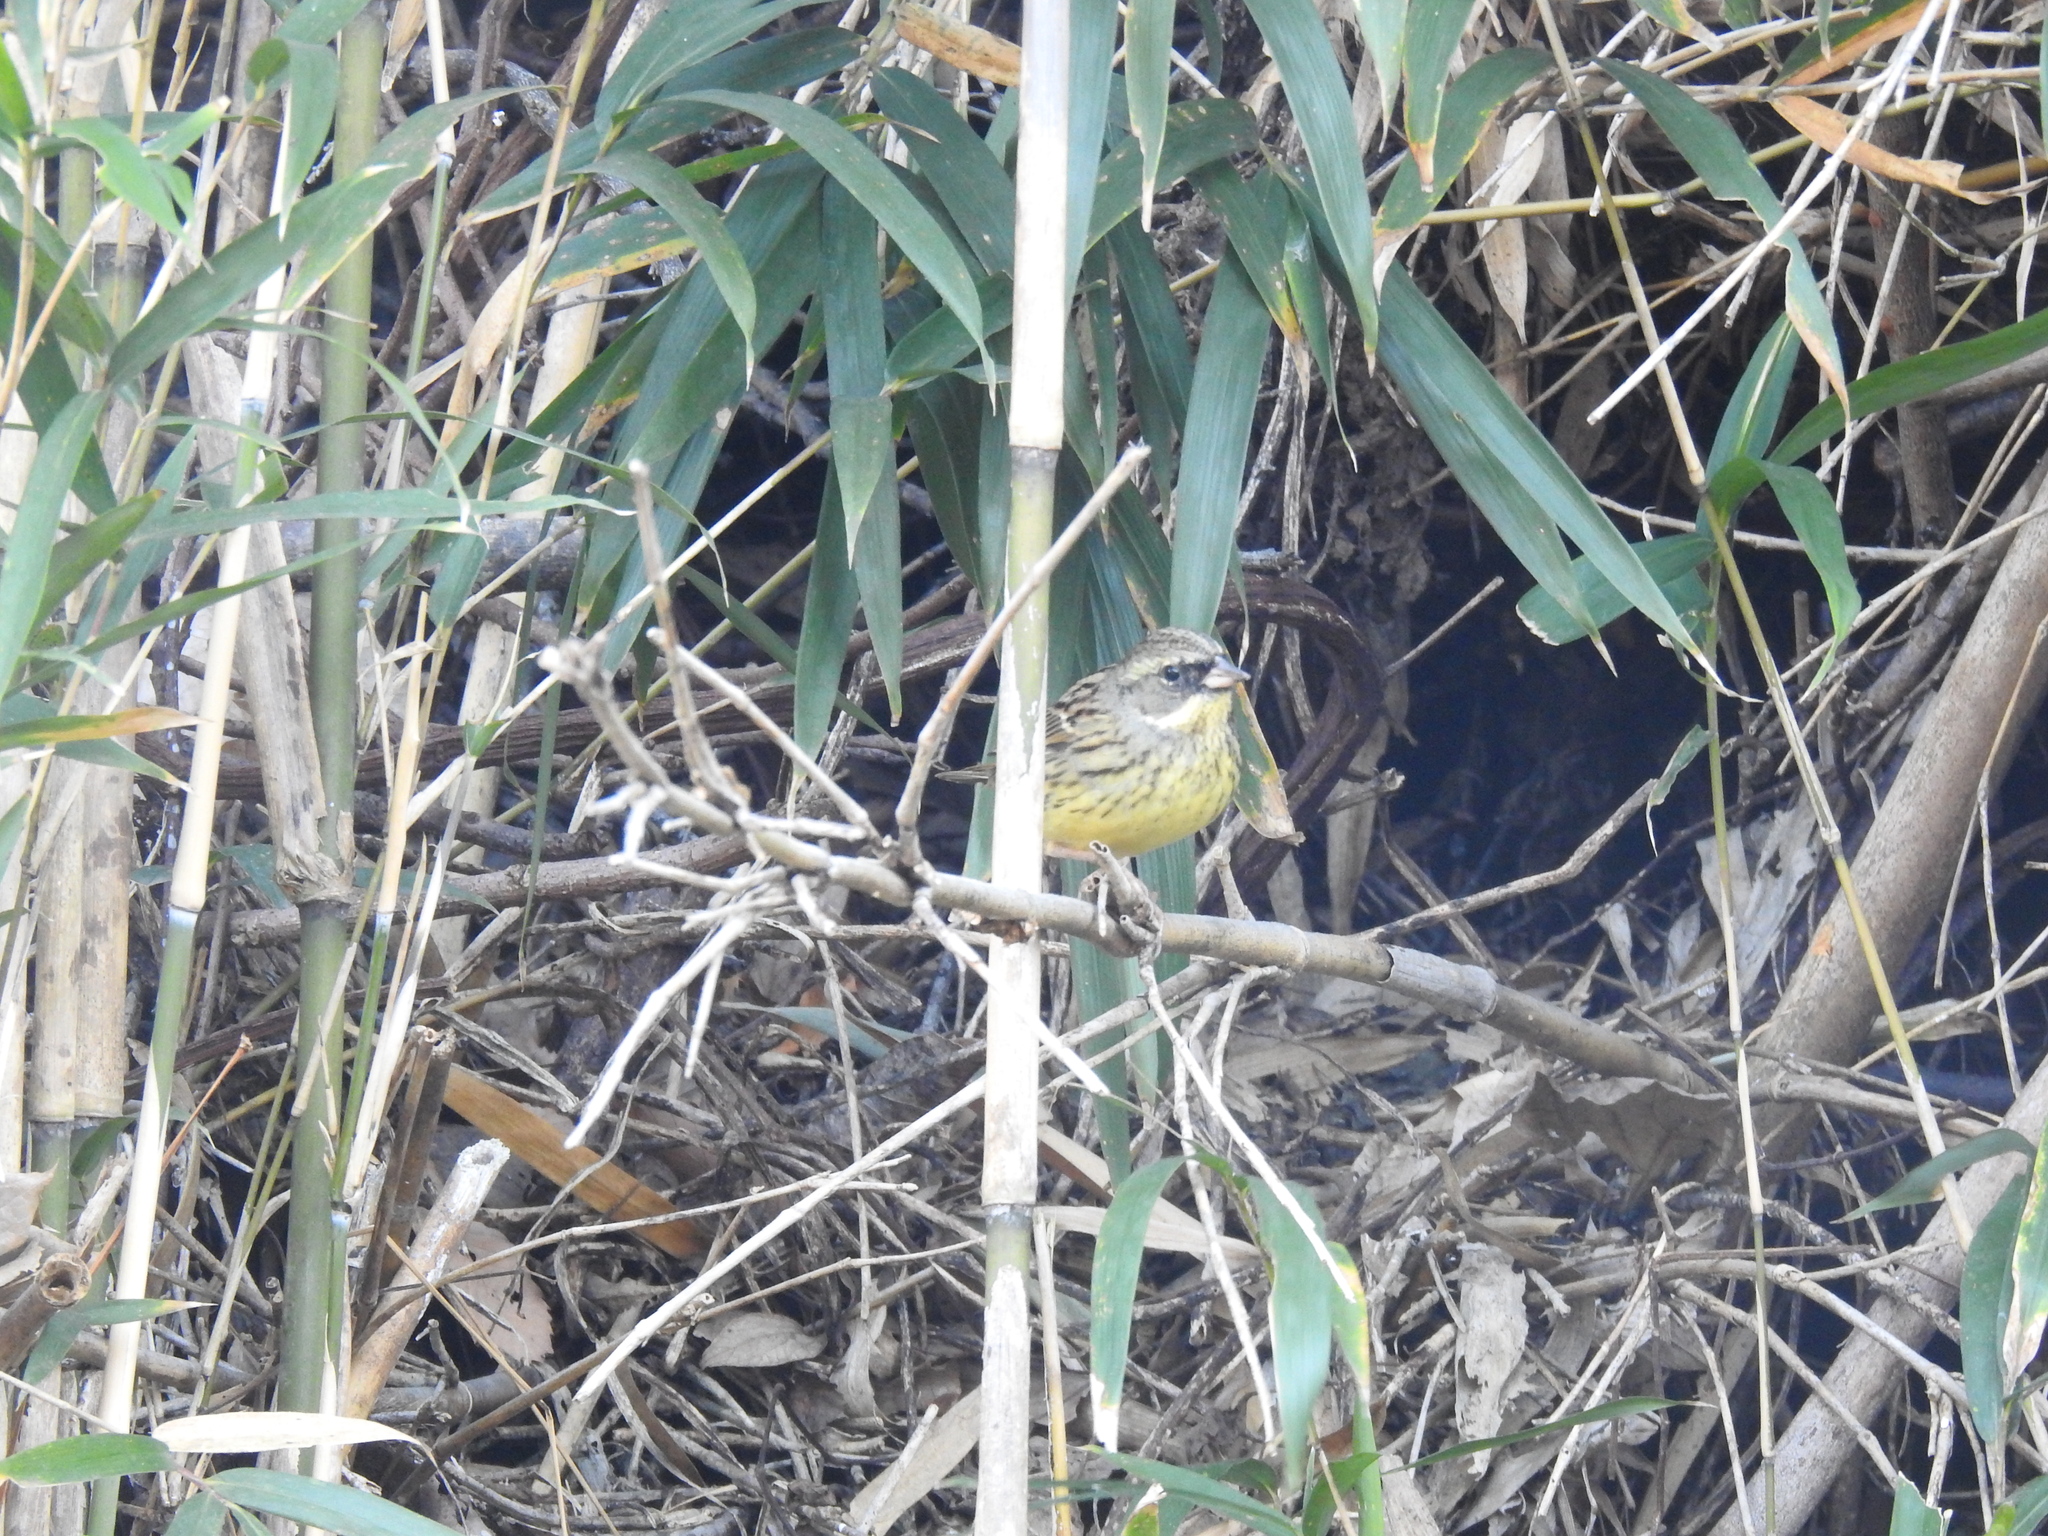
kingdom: Animalia
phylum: Chordata
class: Aves
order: Passeriformes
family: Emberizidae
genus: Emberiza
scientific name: Emberiza personata
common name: Masked bunting
